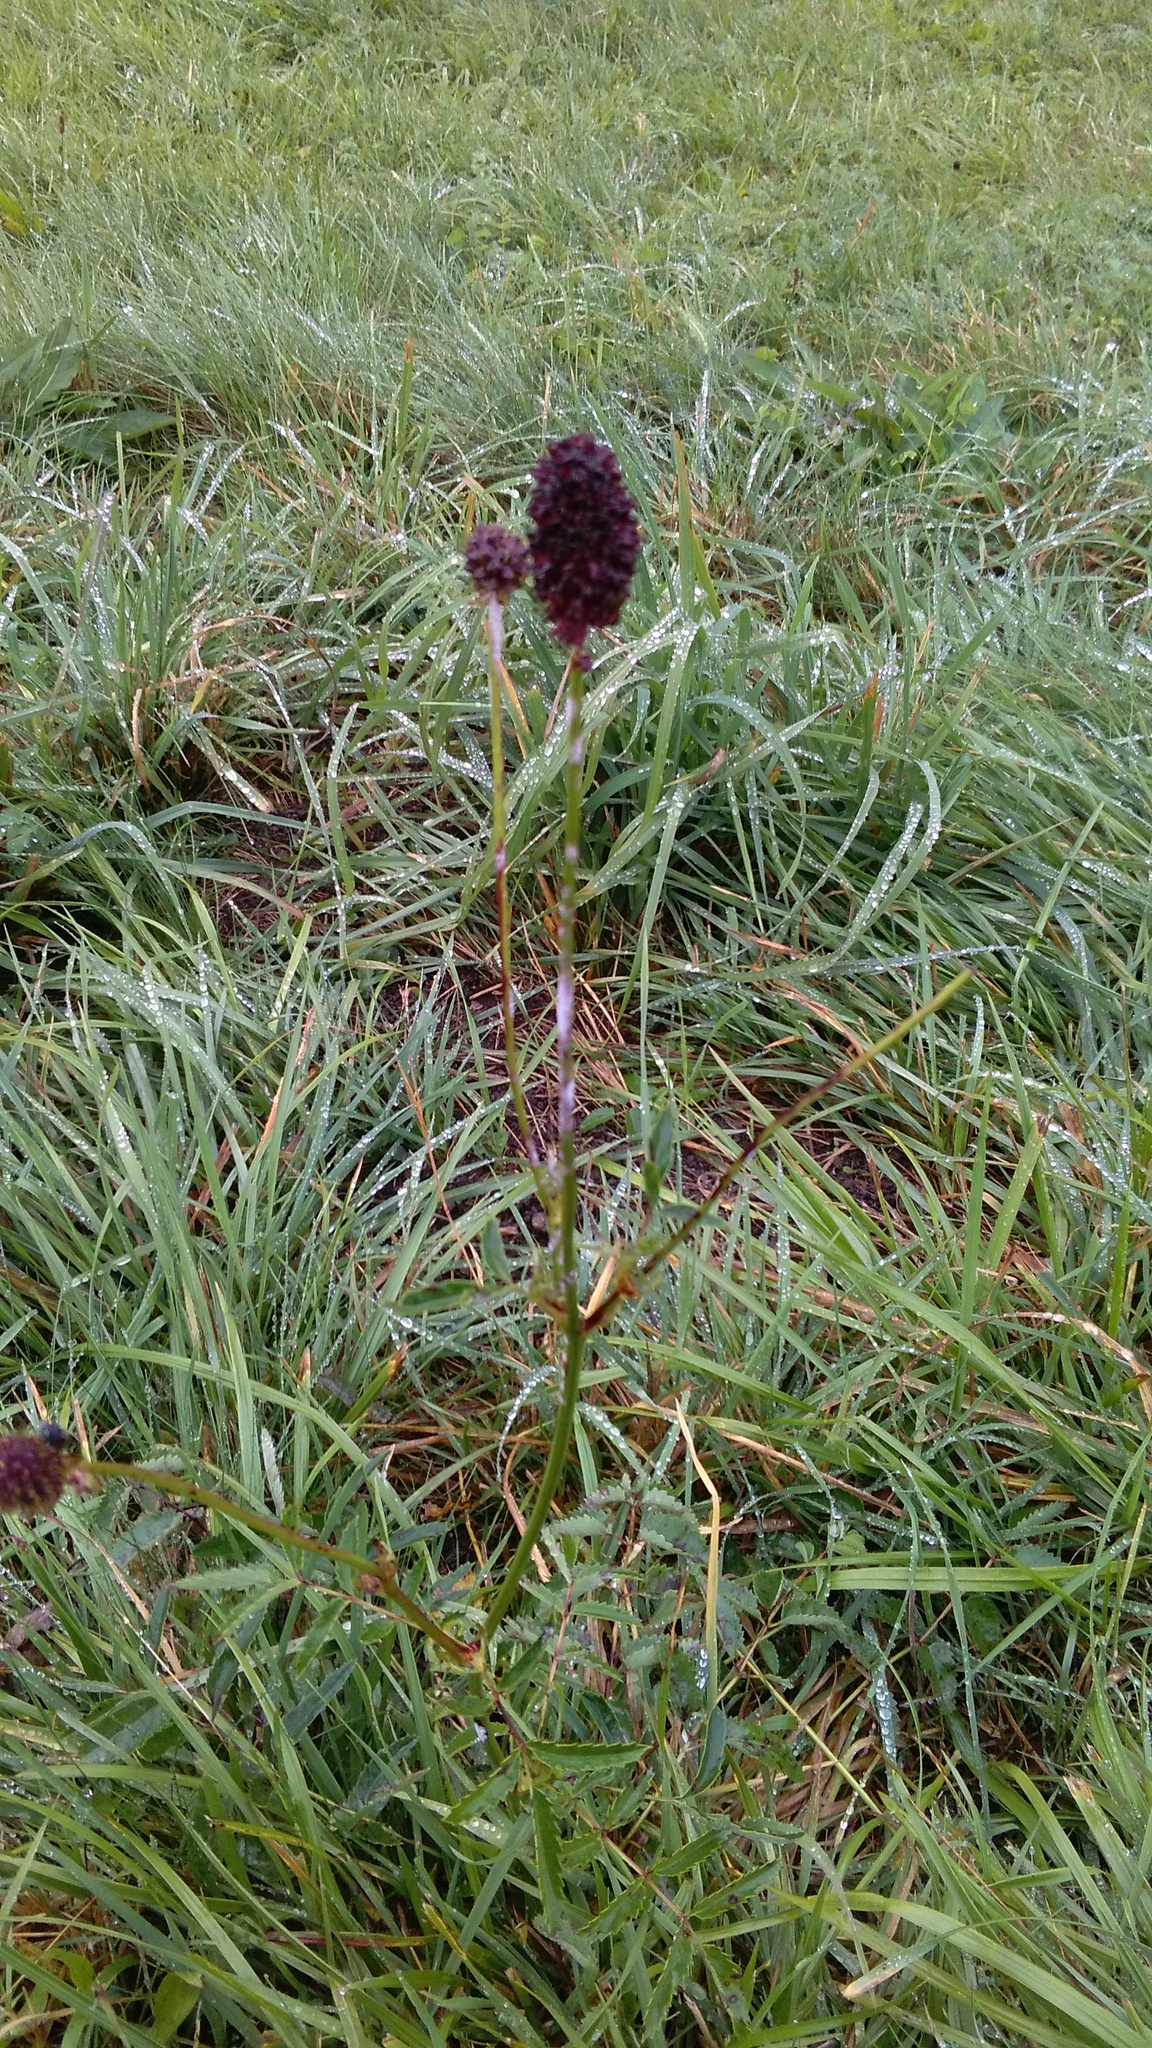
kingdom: Plantae
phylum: Tracheophyta
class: Magnoliopsida
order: Rosales
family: Rosaceae
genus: Sanguisorba
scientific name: Sanguisorba officinalis
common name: Great burnet
